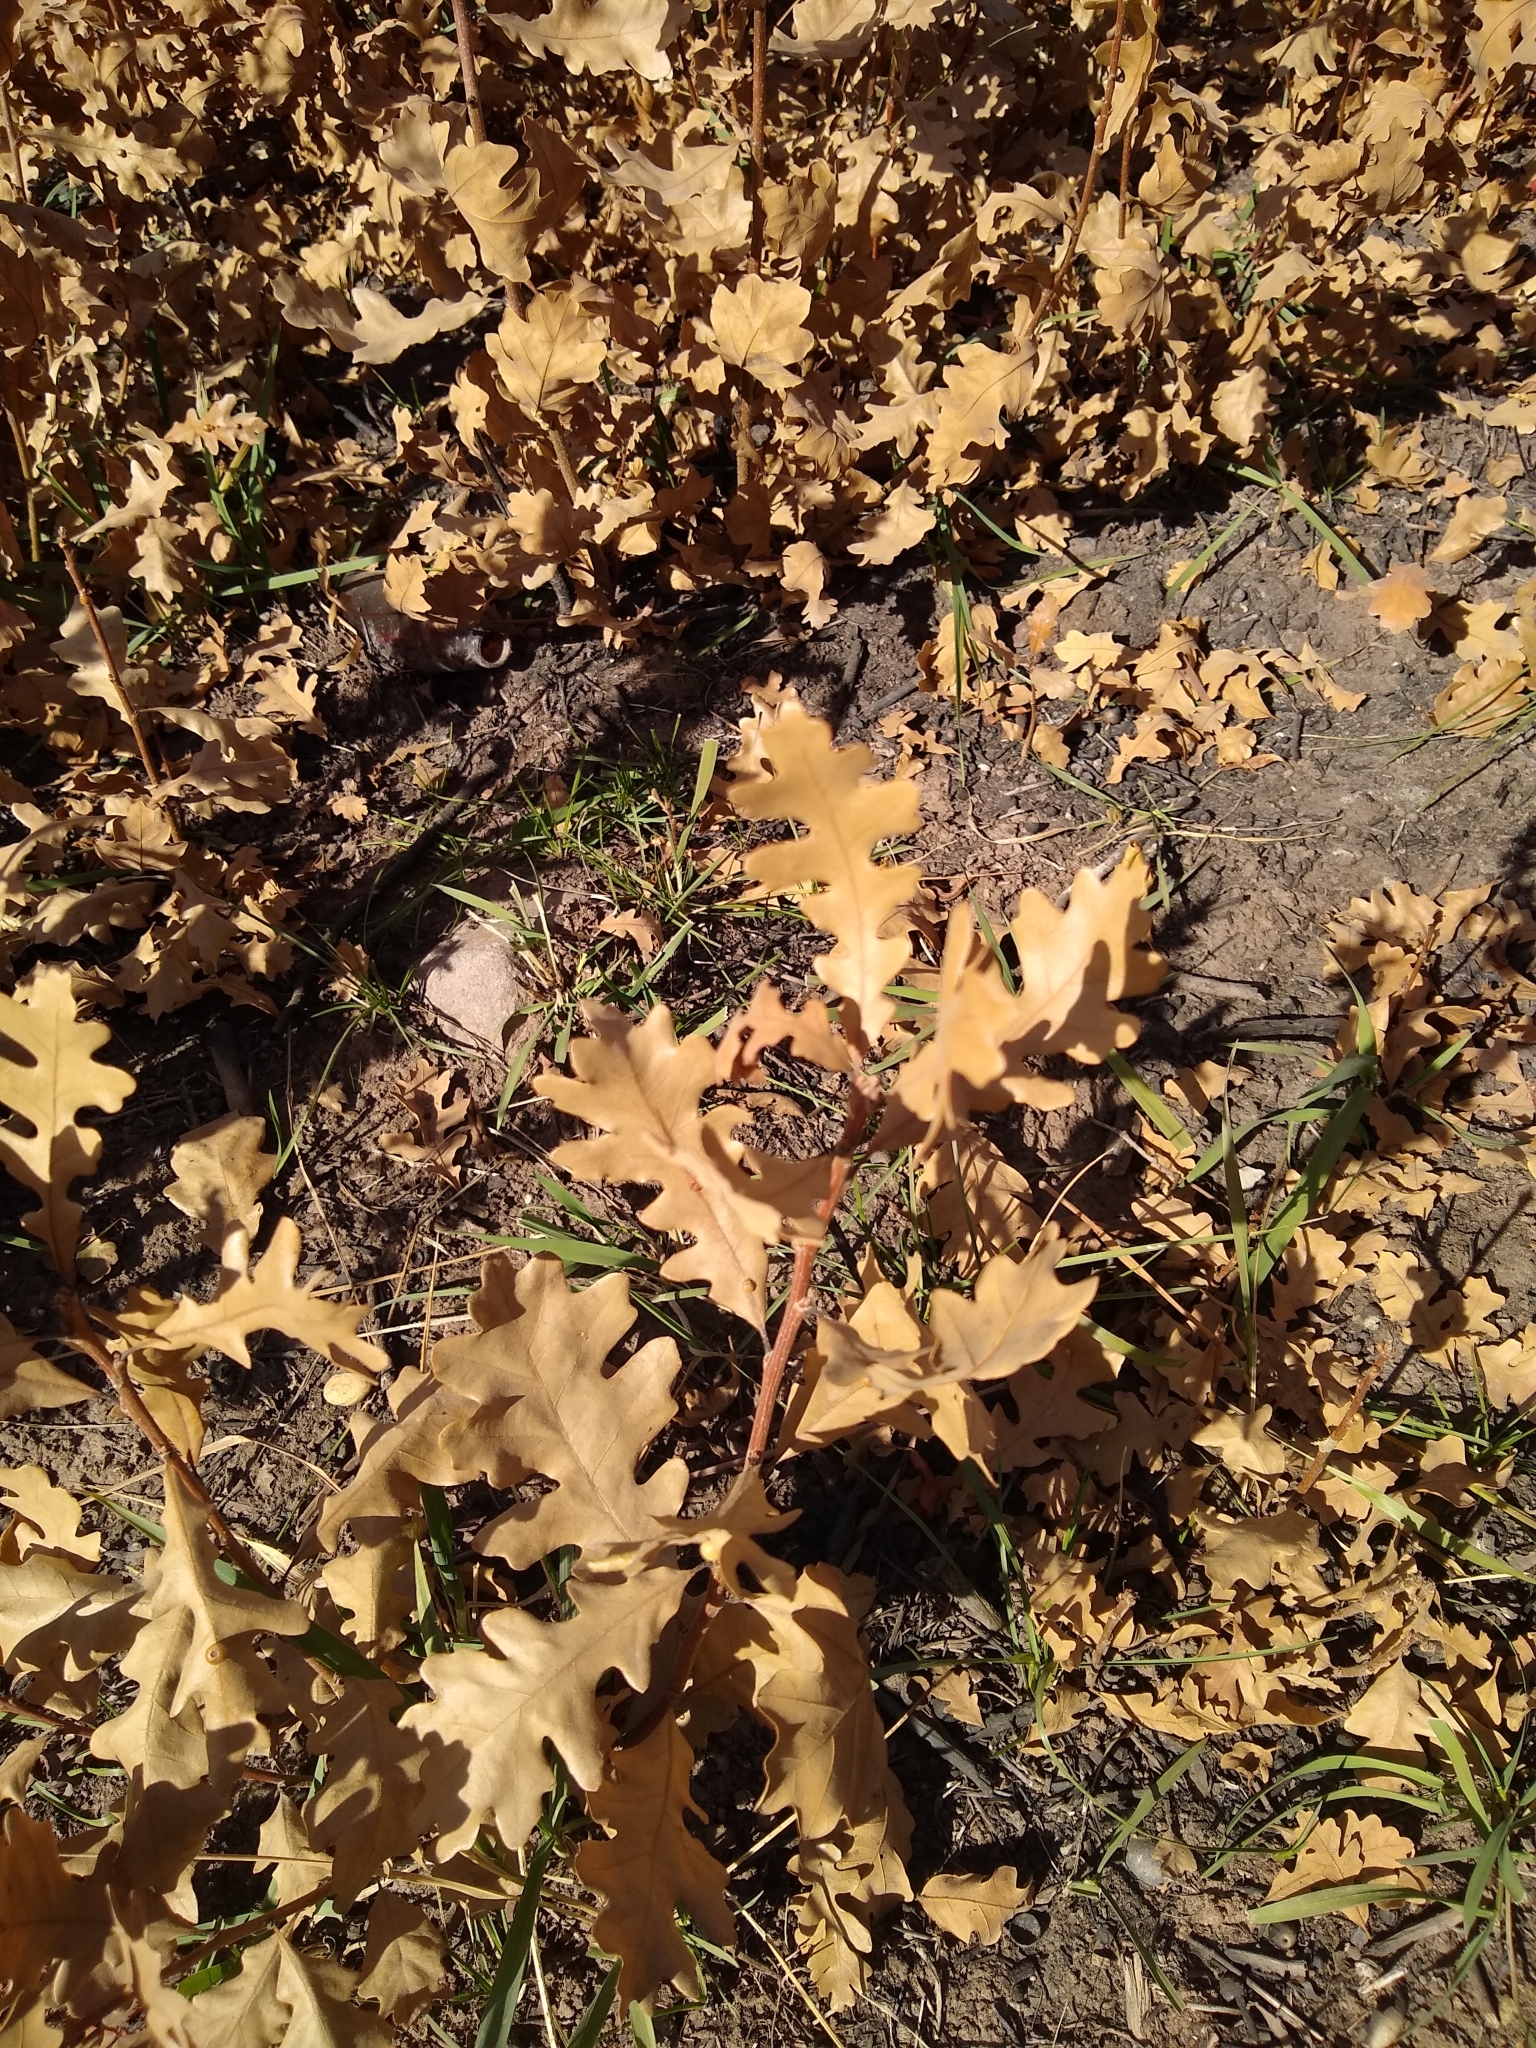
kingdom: Plantae
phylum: Tracheophyta
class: Magnoliopsida
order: Fagales
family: Fagaceae
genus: Quercus
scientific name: Quercus gambelii
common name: Gambel oak
